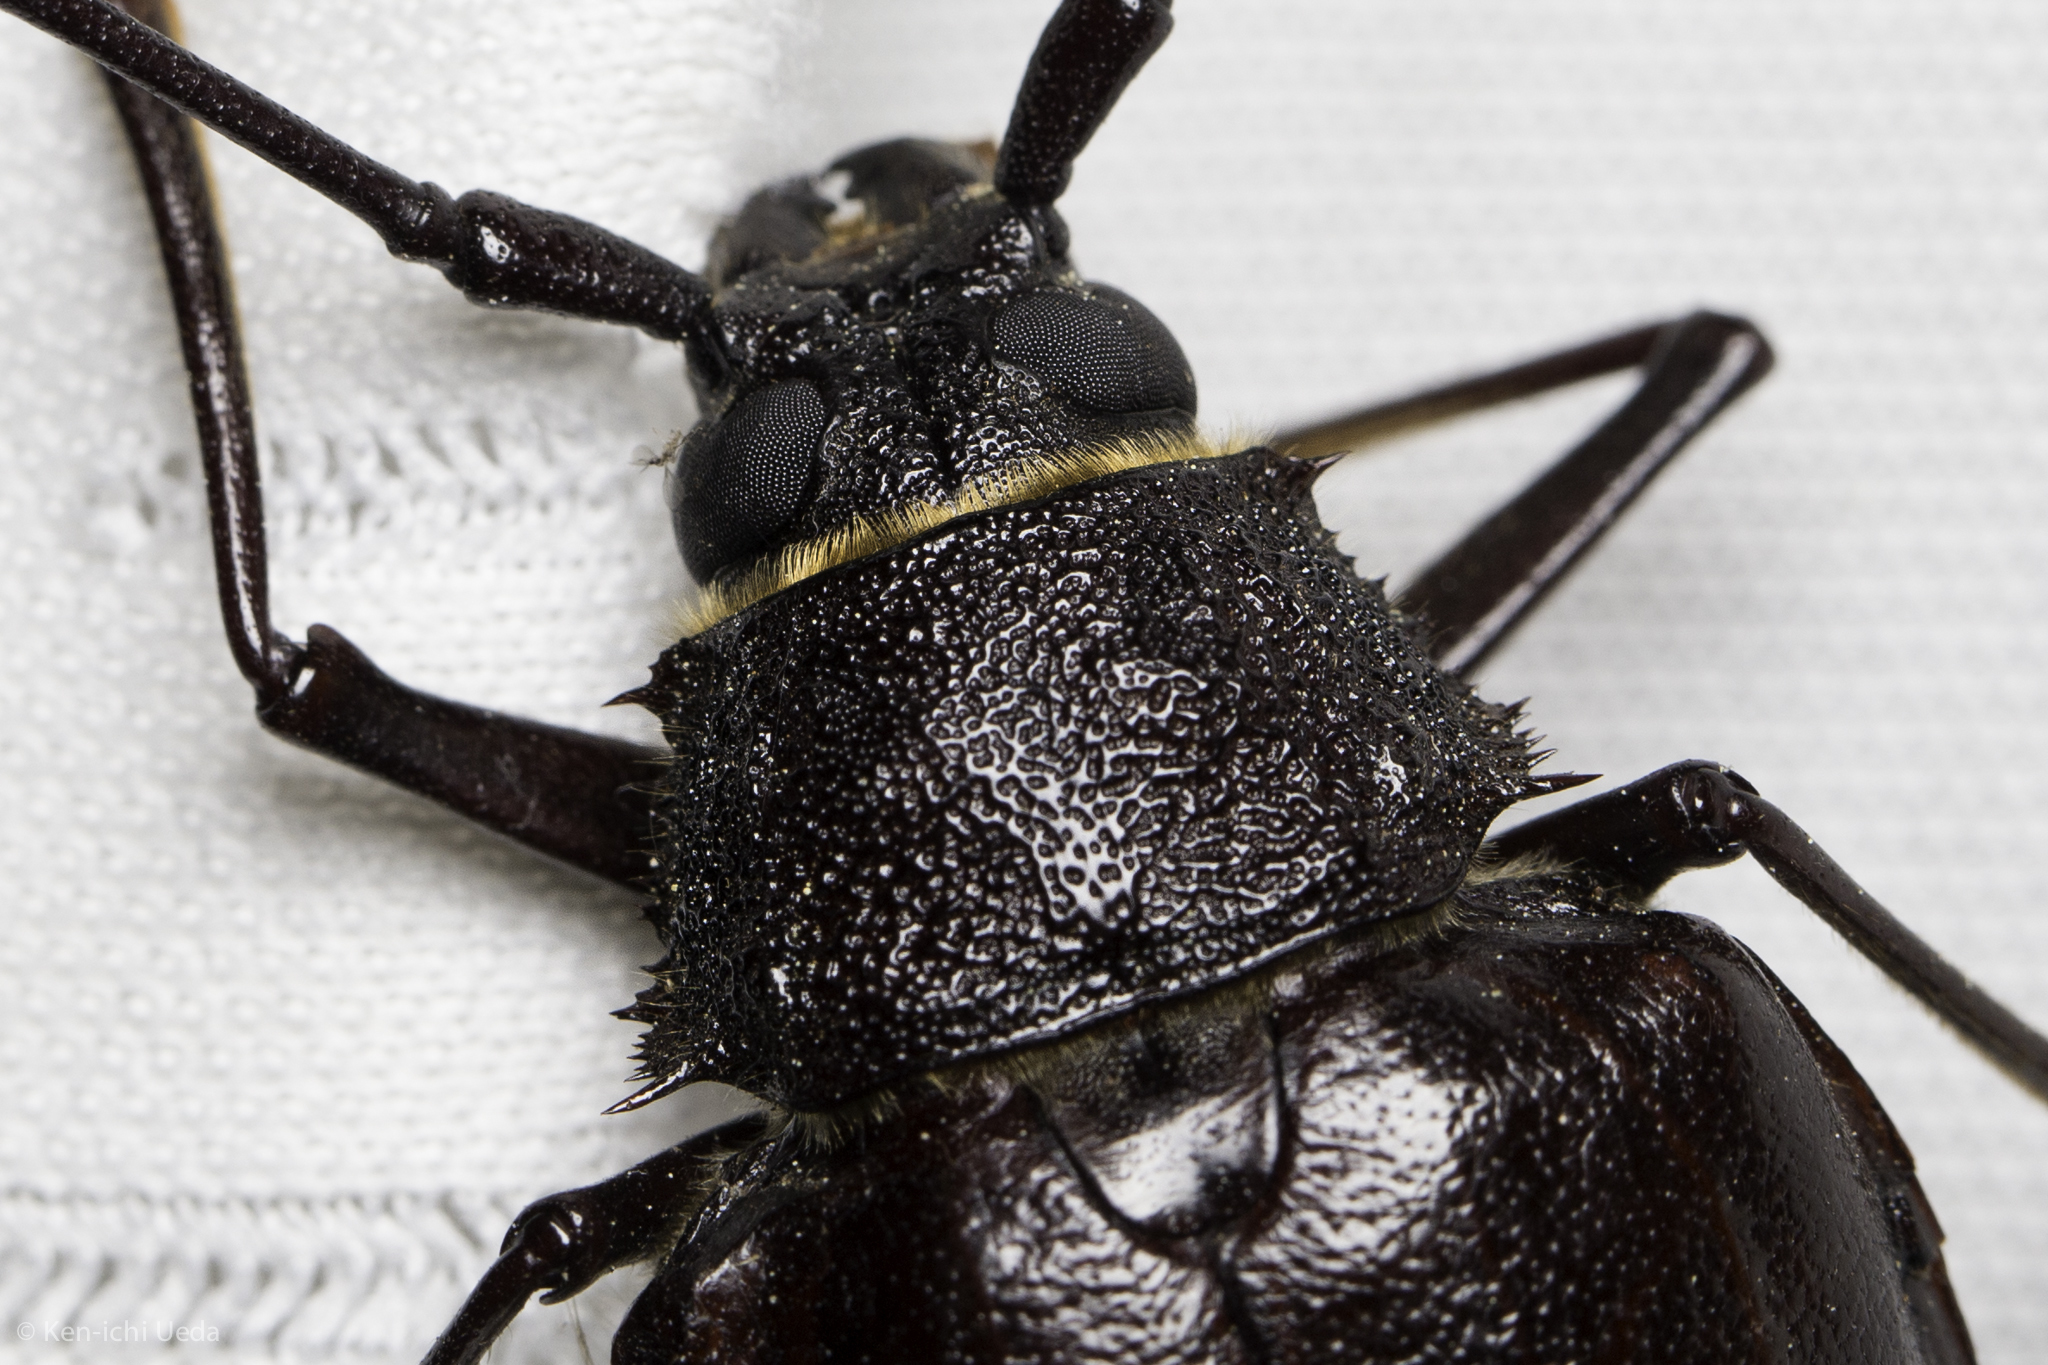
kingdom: Animalia
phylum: Arthropoda
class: Insecta
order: Coleoptera
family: Cerambycidae
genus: Trichocnemis
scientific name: Trichocnemis spiculatus
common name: Long-horned beetle
